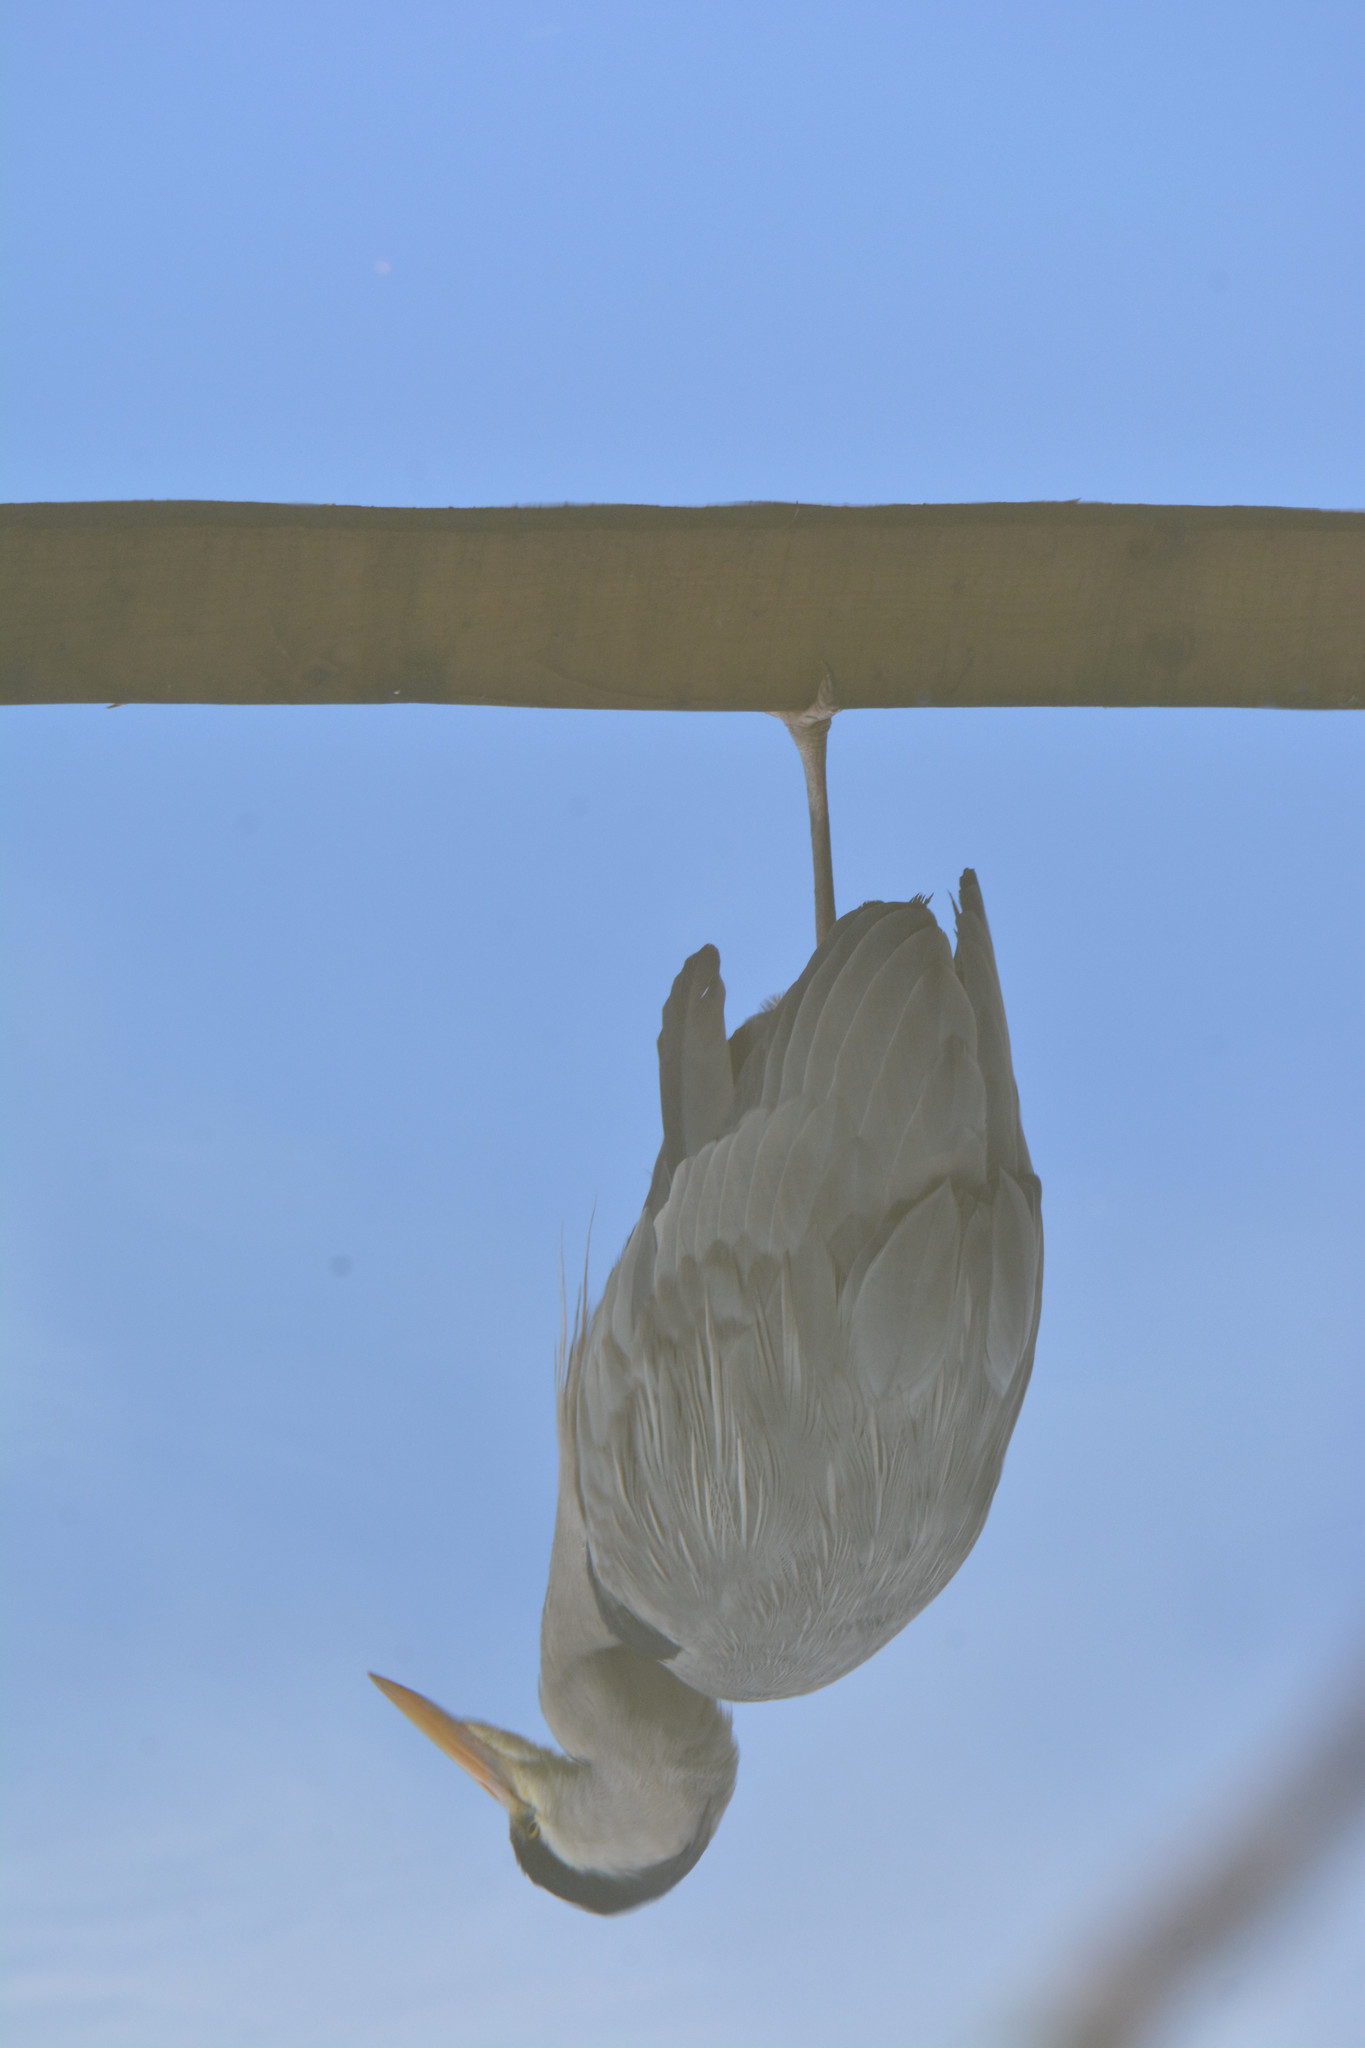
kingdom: Animalia
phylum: Chordata
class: Aves
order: Pelecaniformes
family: Ardeidae
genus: Ardea
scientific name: Ardea cinerea
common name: Grey heron
